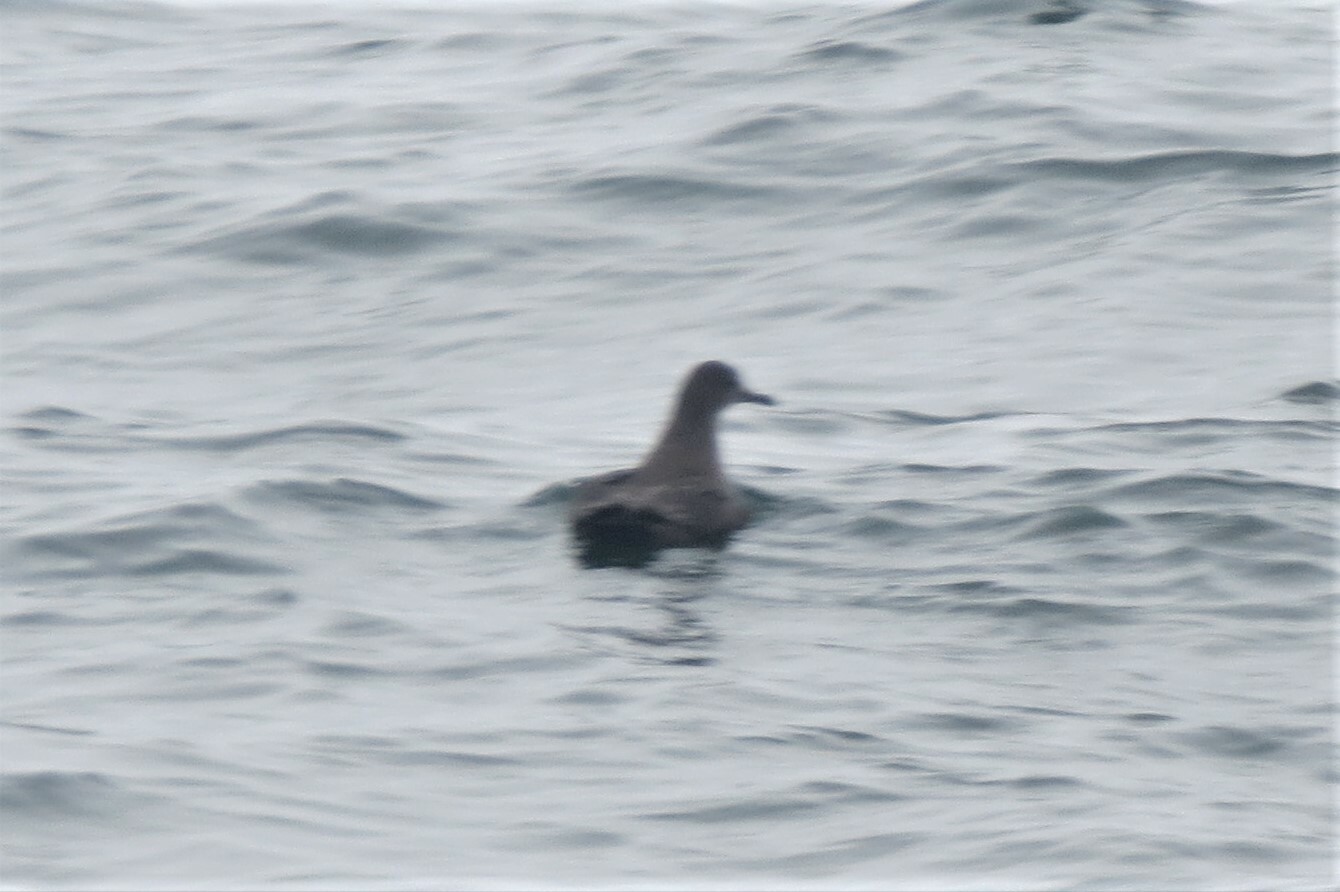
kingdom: Animalia
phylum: Chordata
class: Aves
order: Procellariiformes
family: Procellariidae
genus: Puffinus
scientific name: Puffinus griseus
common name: Sooty shearwater
